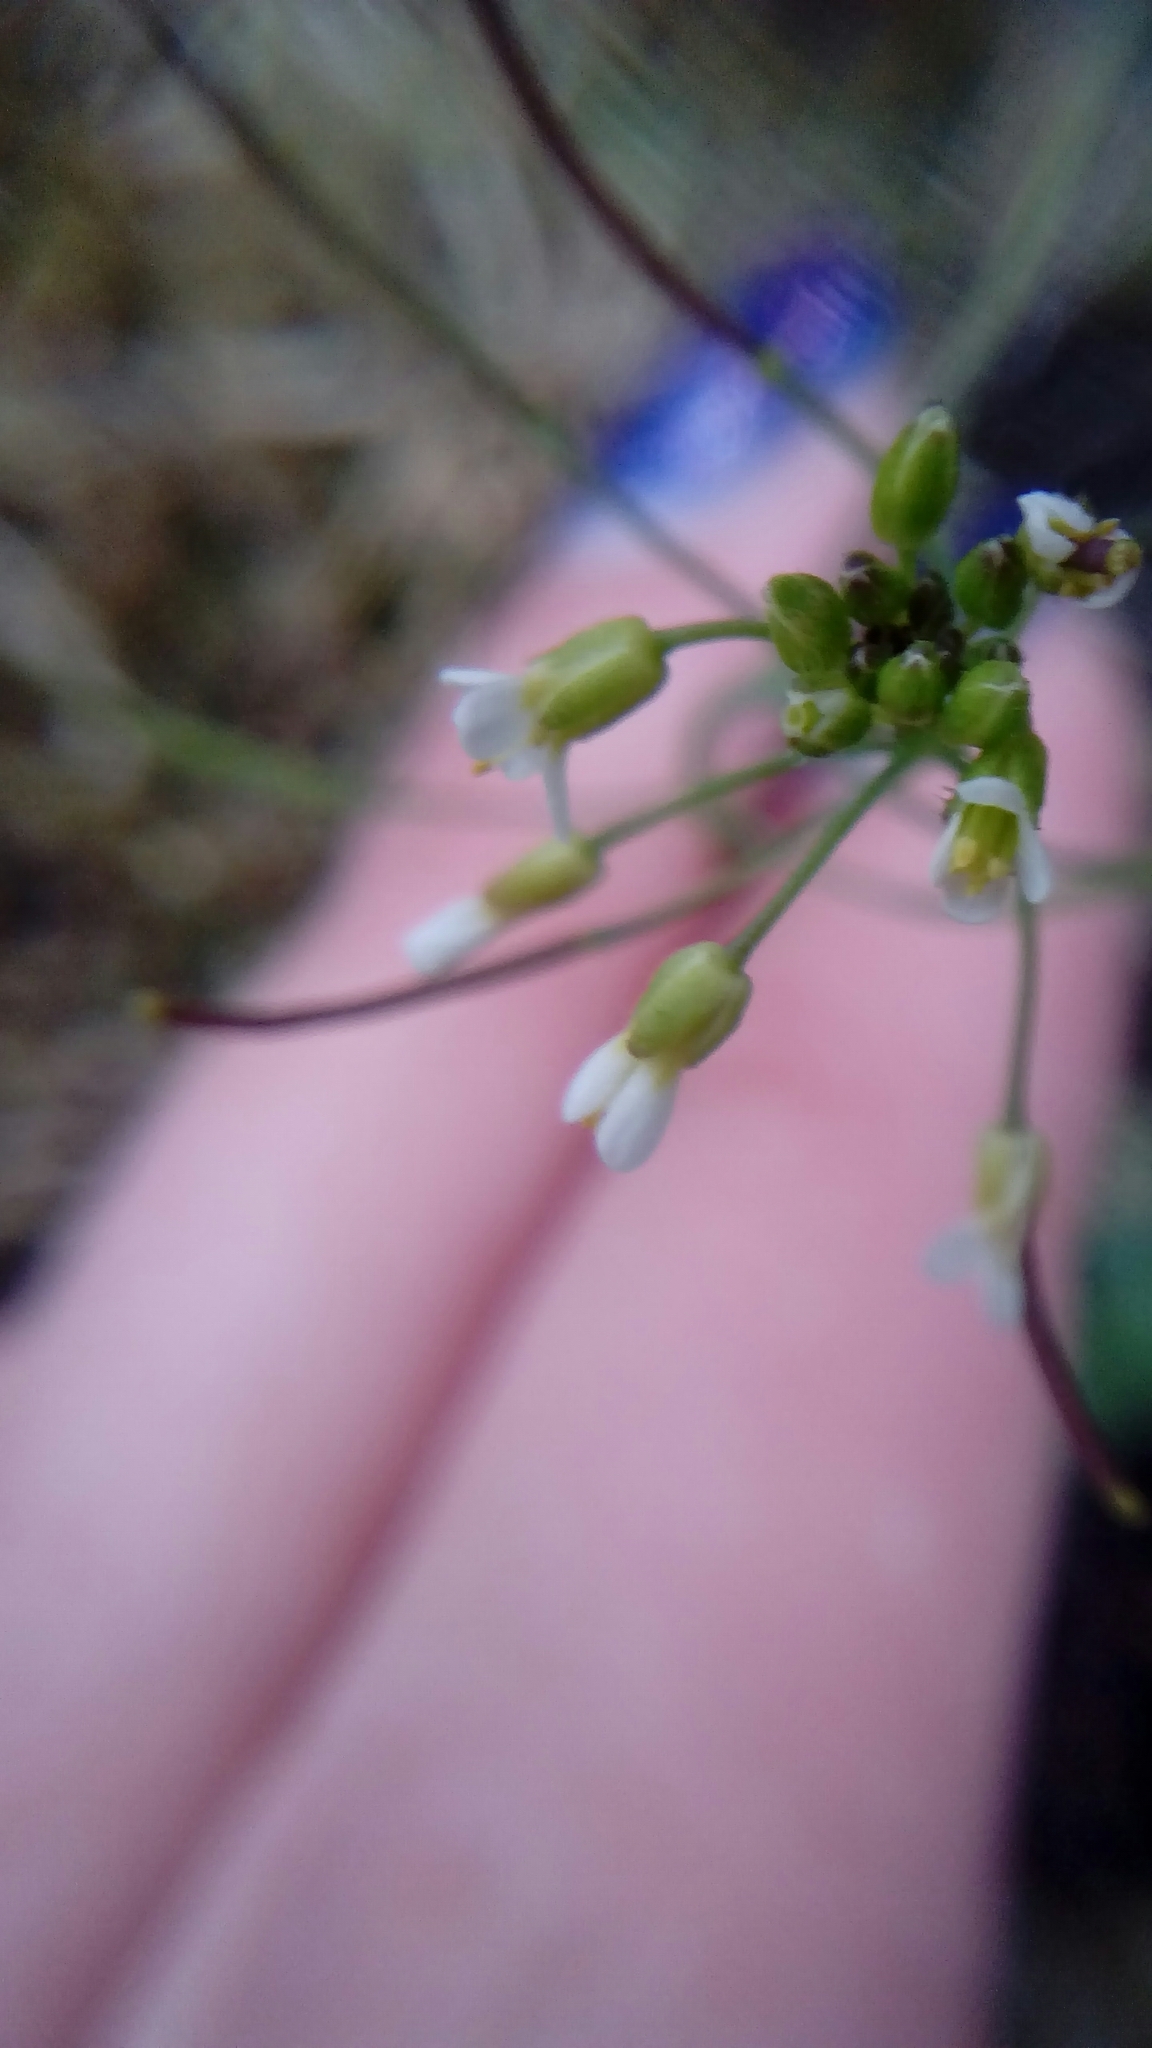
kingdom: Plantae
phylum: Tracheophyta
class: Magnoliopsida
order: Brassicales
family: Brassicaceae
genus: Arabidopsis
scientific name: Arabidopsis thaliana
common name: Thale cress
